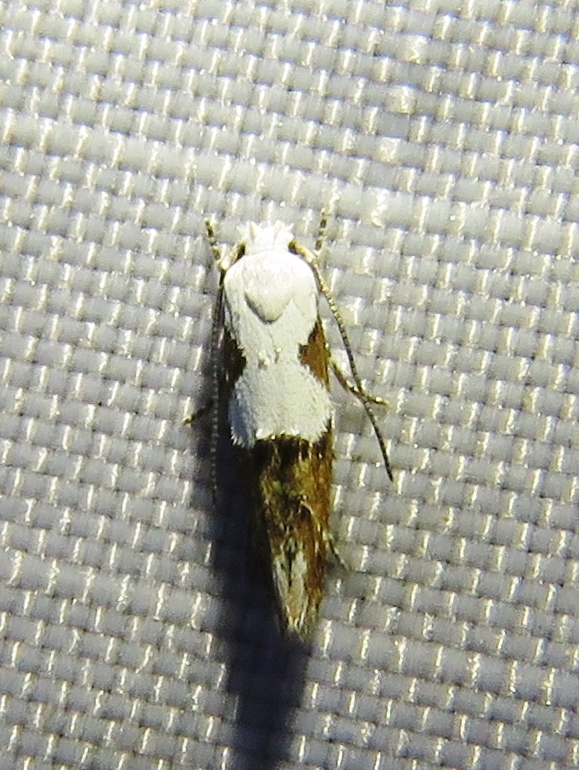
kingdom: Animalia
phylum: Arthropoda
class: Insecta
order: Lepidoptera
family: Momphidae
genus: Mompha
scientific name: Mompha circumscriptella
